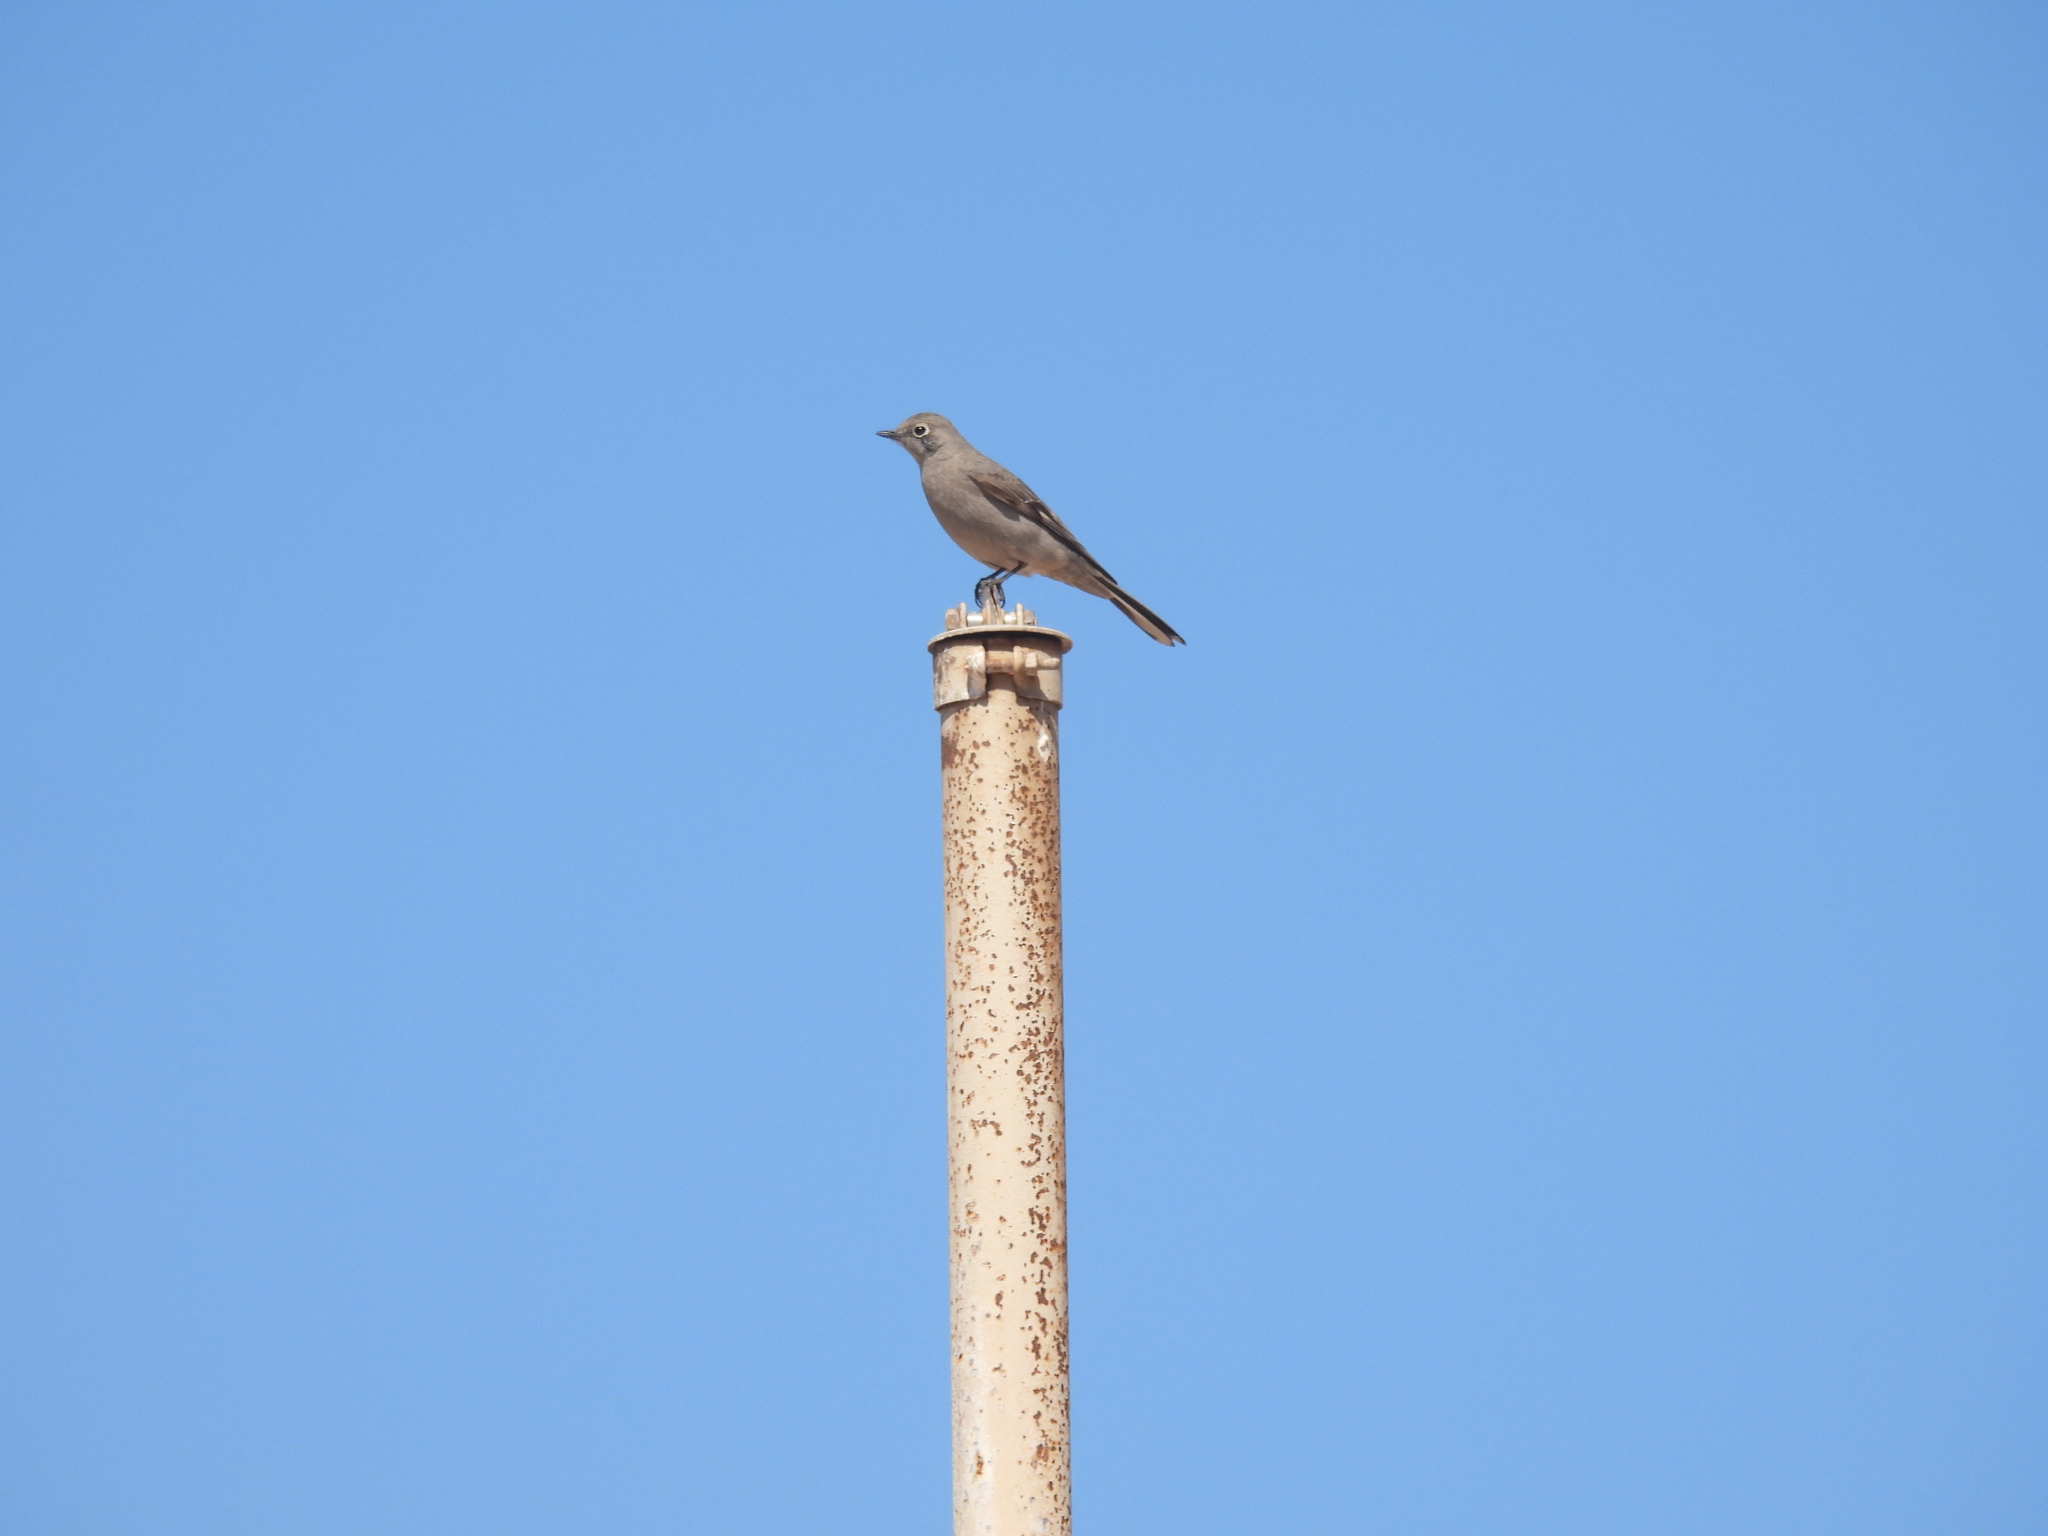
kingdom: Animalia
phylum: Chordata
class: Aves
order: Passeriformes
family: Turdidae
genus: Myadestes
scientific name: Myadestes townsendi
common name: Townsend's solitaire
